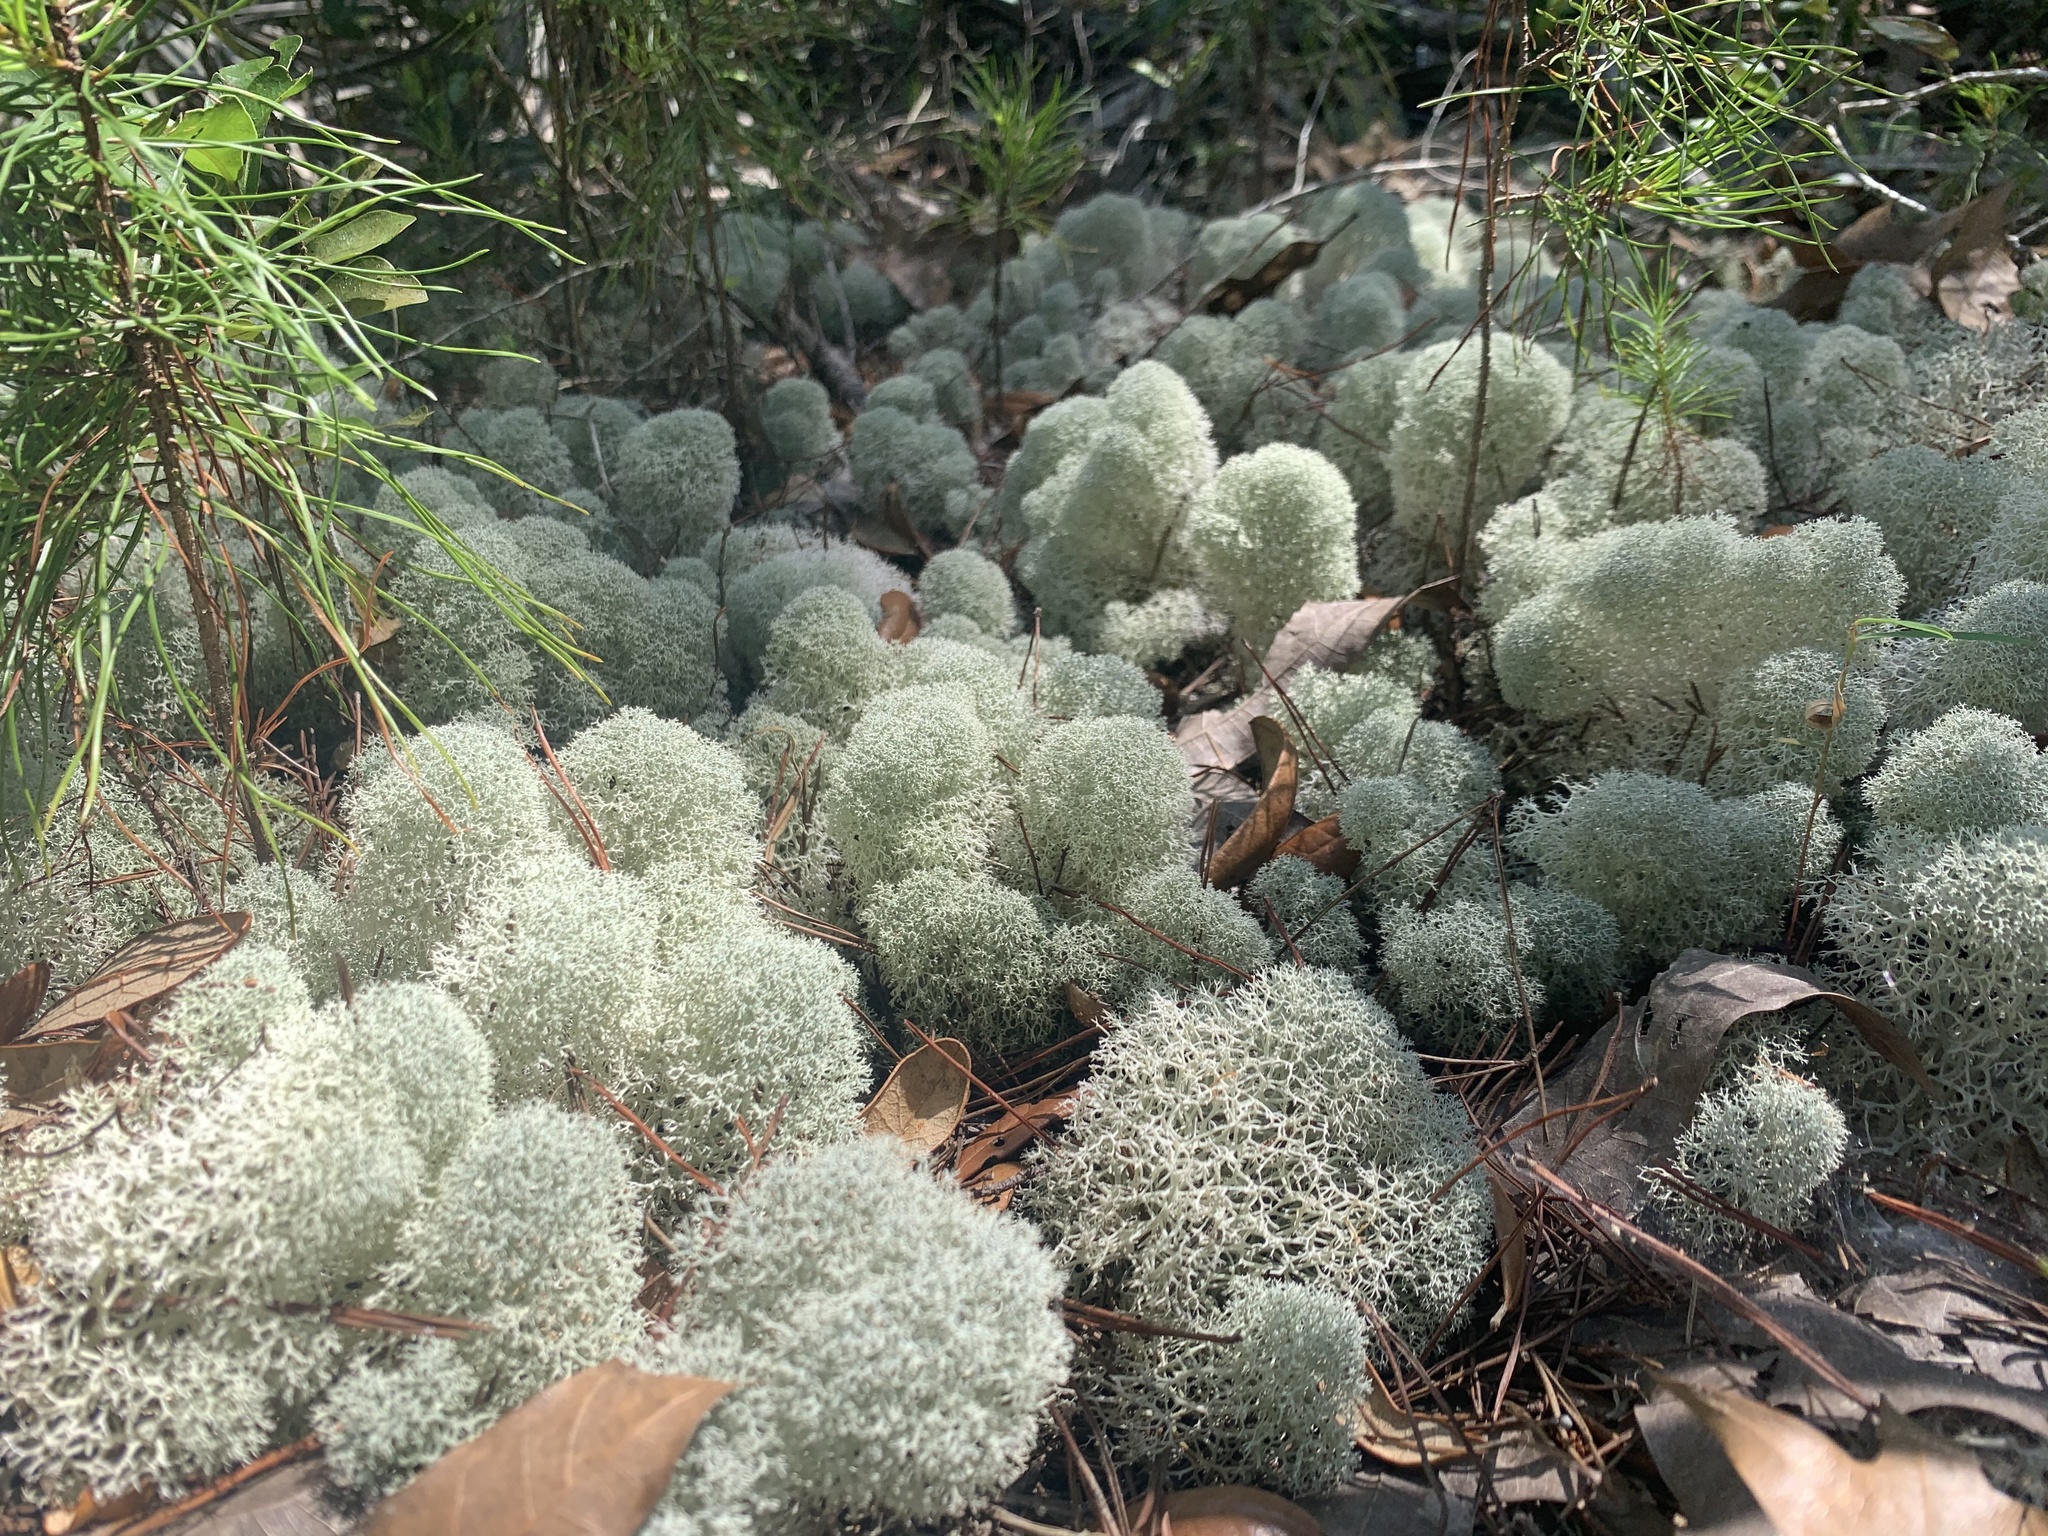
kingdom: Fungi
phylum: Ascomycota
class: Lecanoromycetes
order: Lecanorales
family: Cladoniaceae
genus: Cladonia
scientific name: Cladonia evansii
